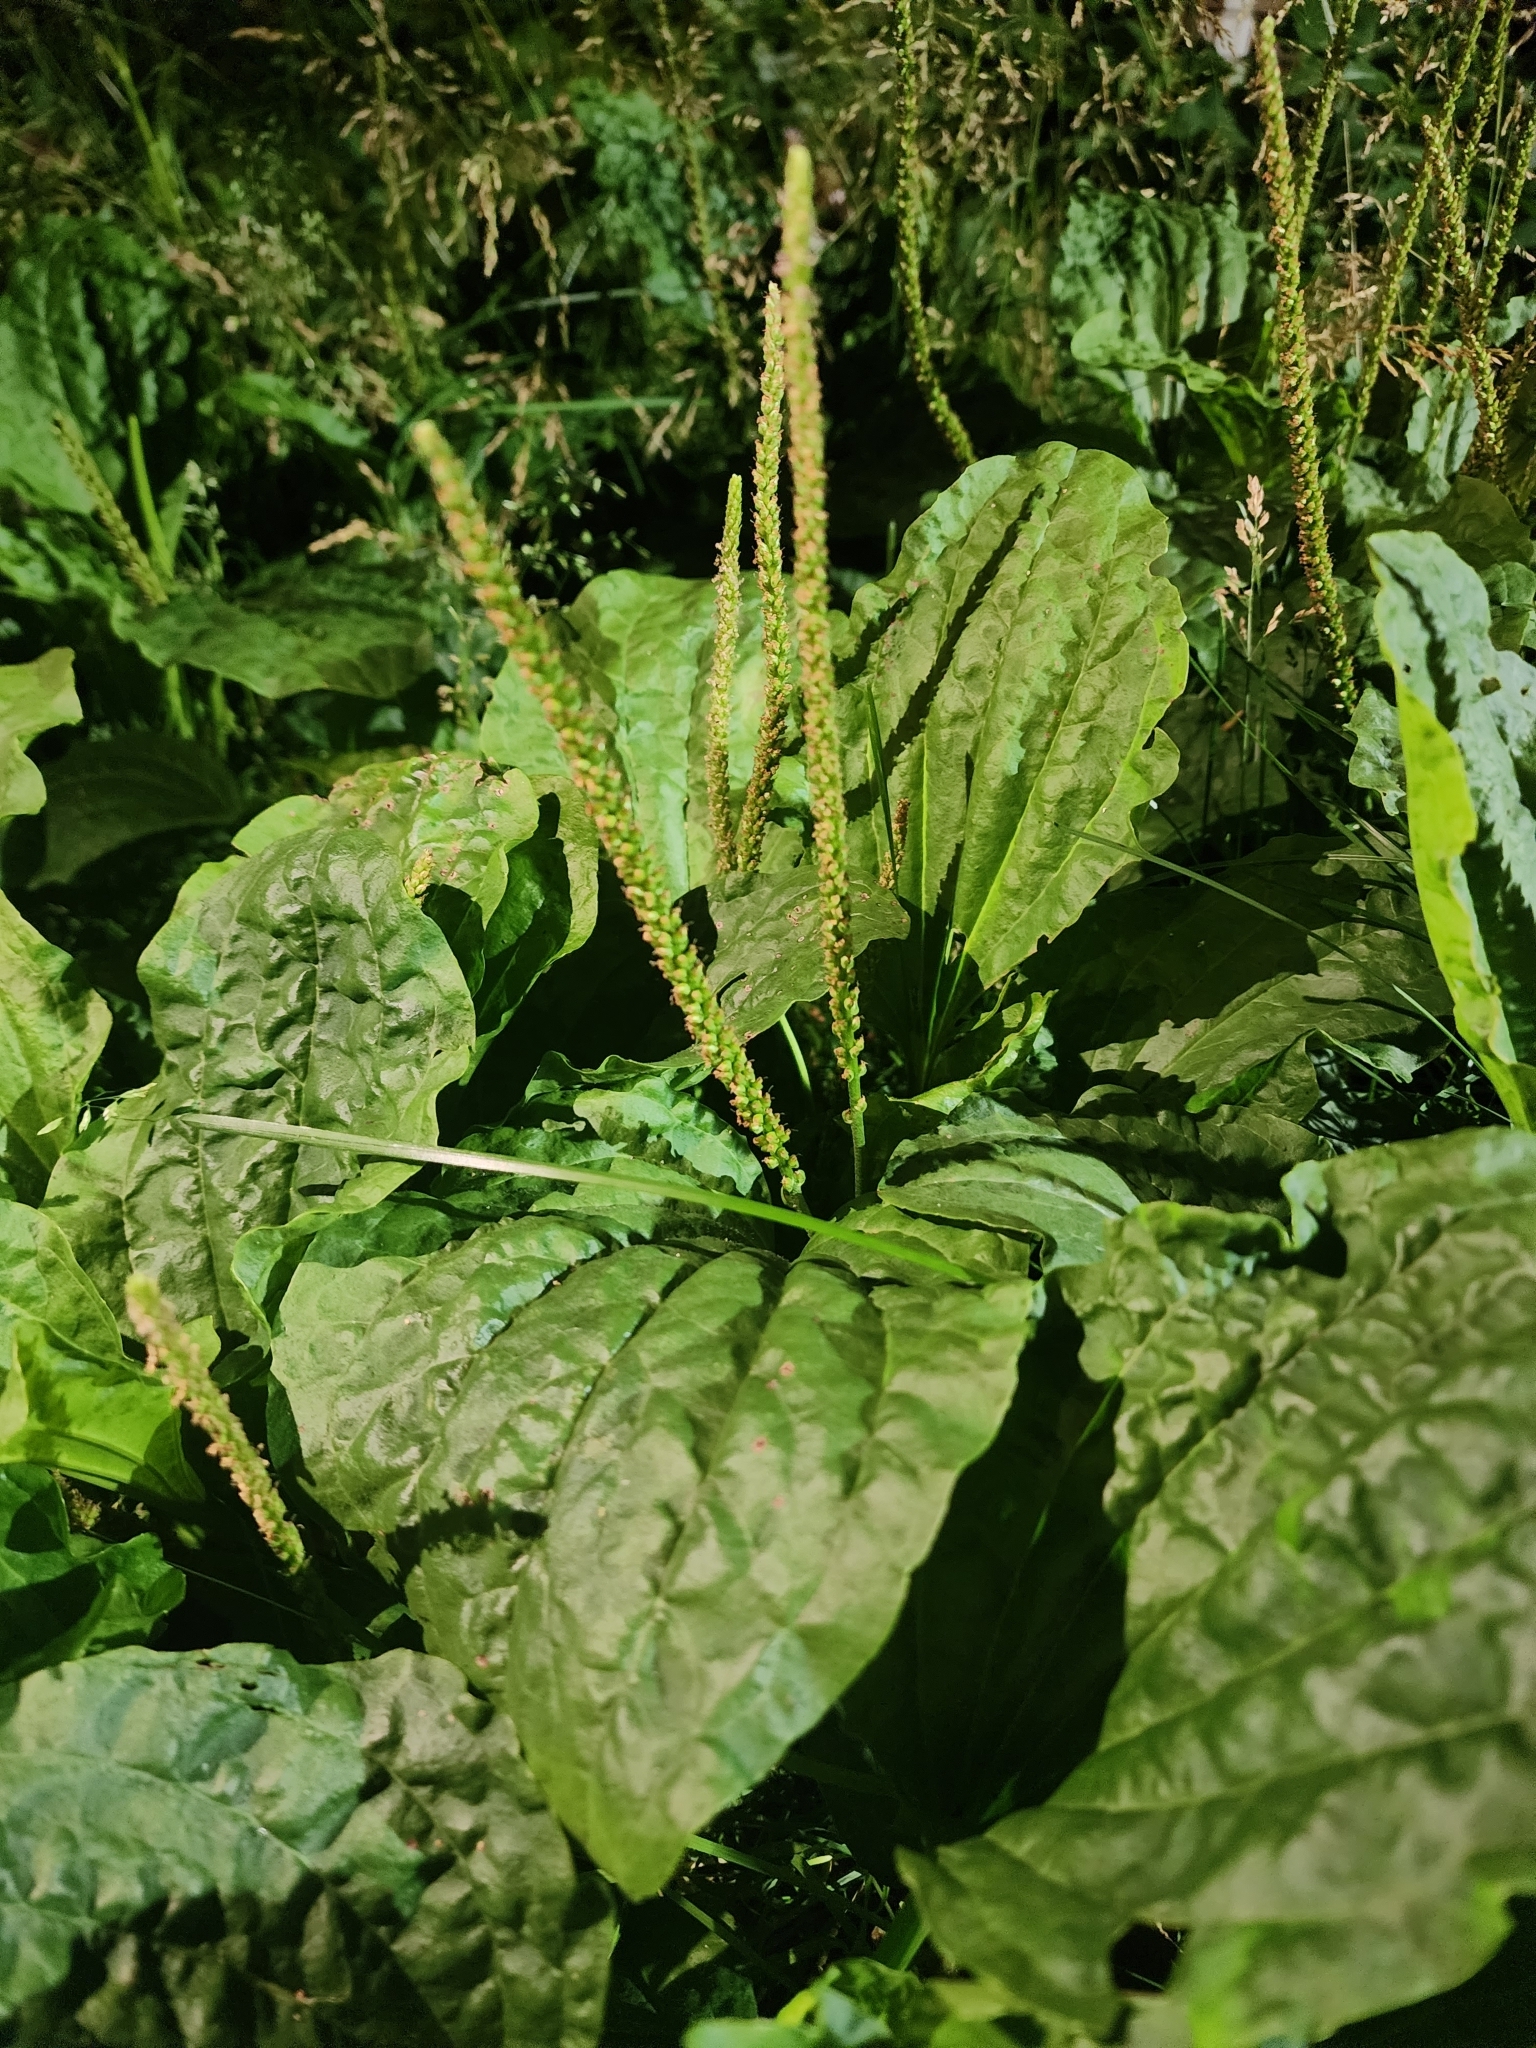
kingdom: Plantae
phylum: Tracheophyta
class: Magnoliopsida
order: Lamiales
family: Plantaginaceae
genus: Plantago
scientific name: Plantago major
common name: Common plantain
